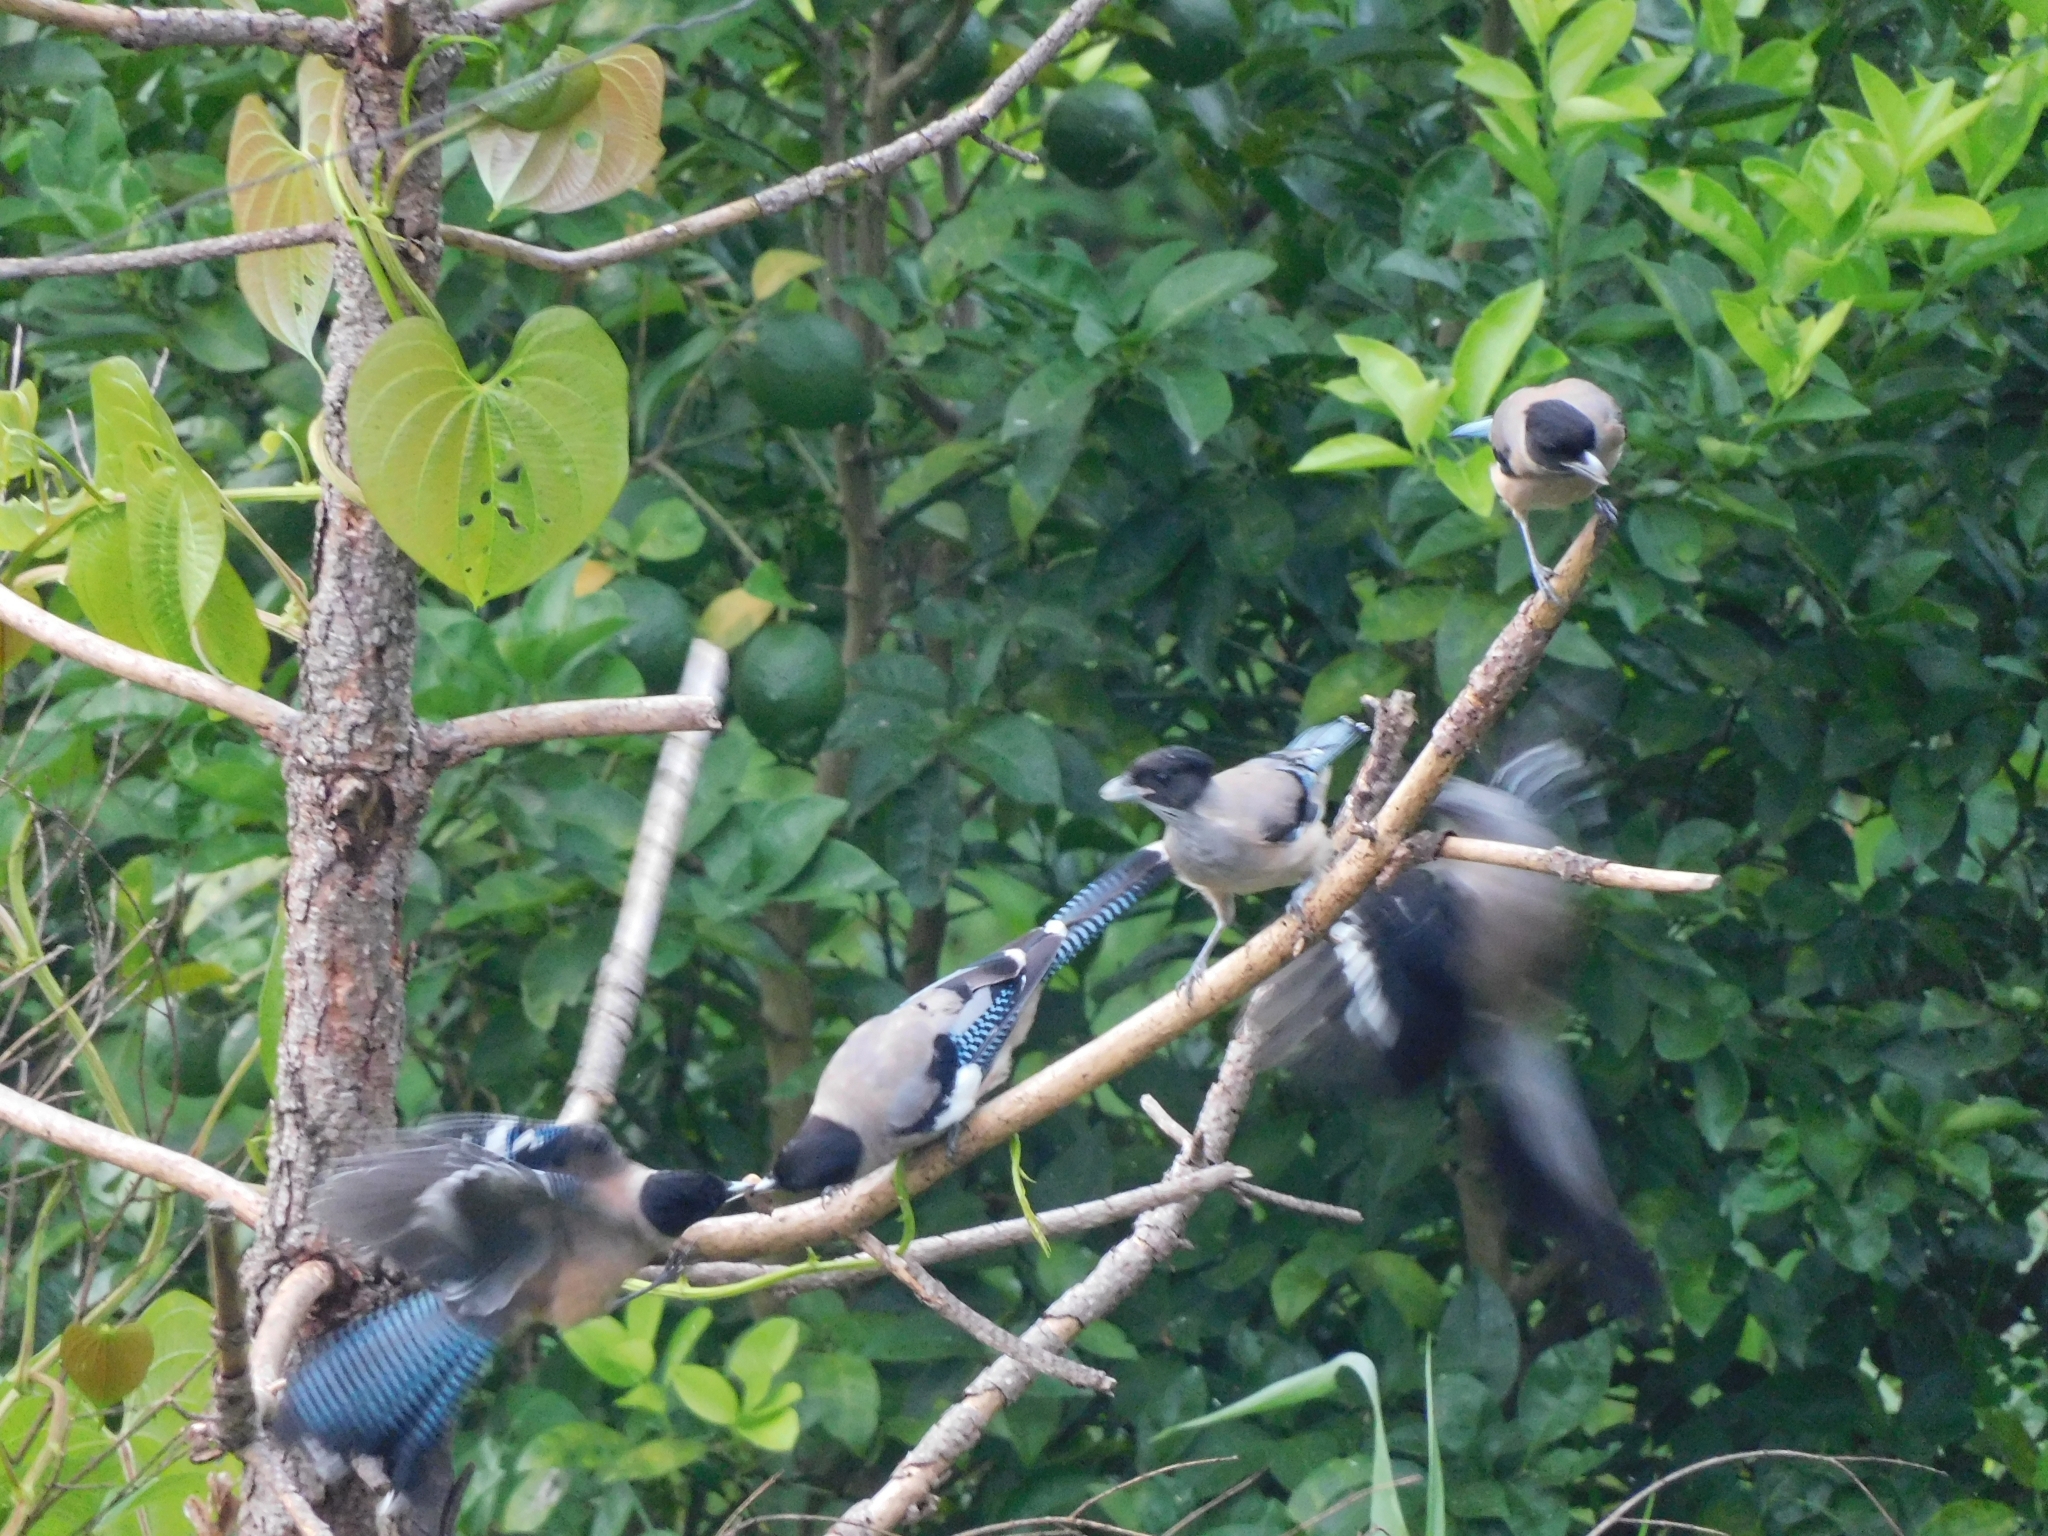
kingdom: Animalia
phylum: Chordata
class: Aves
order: Passeriformes
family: Corvidae
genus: Garrulus
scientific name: Garrulus lanceolatus
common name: Black-headed jay
